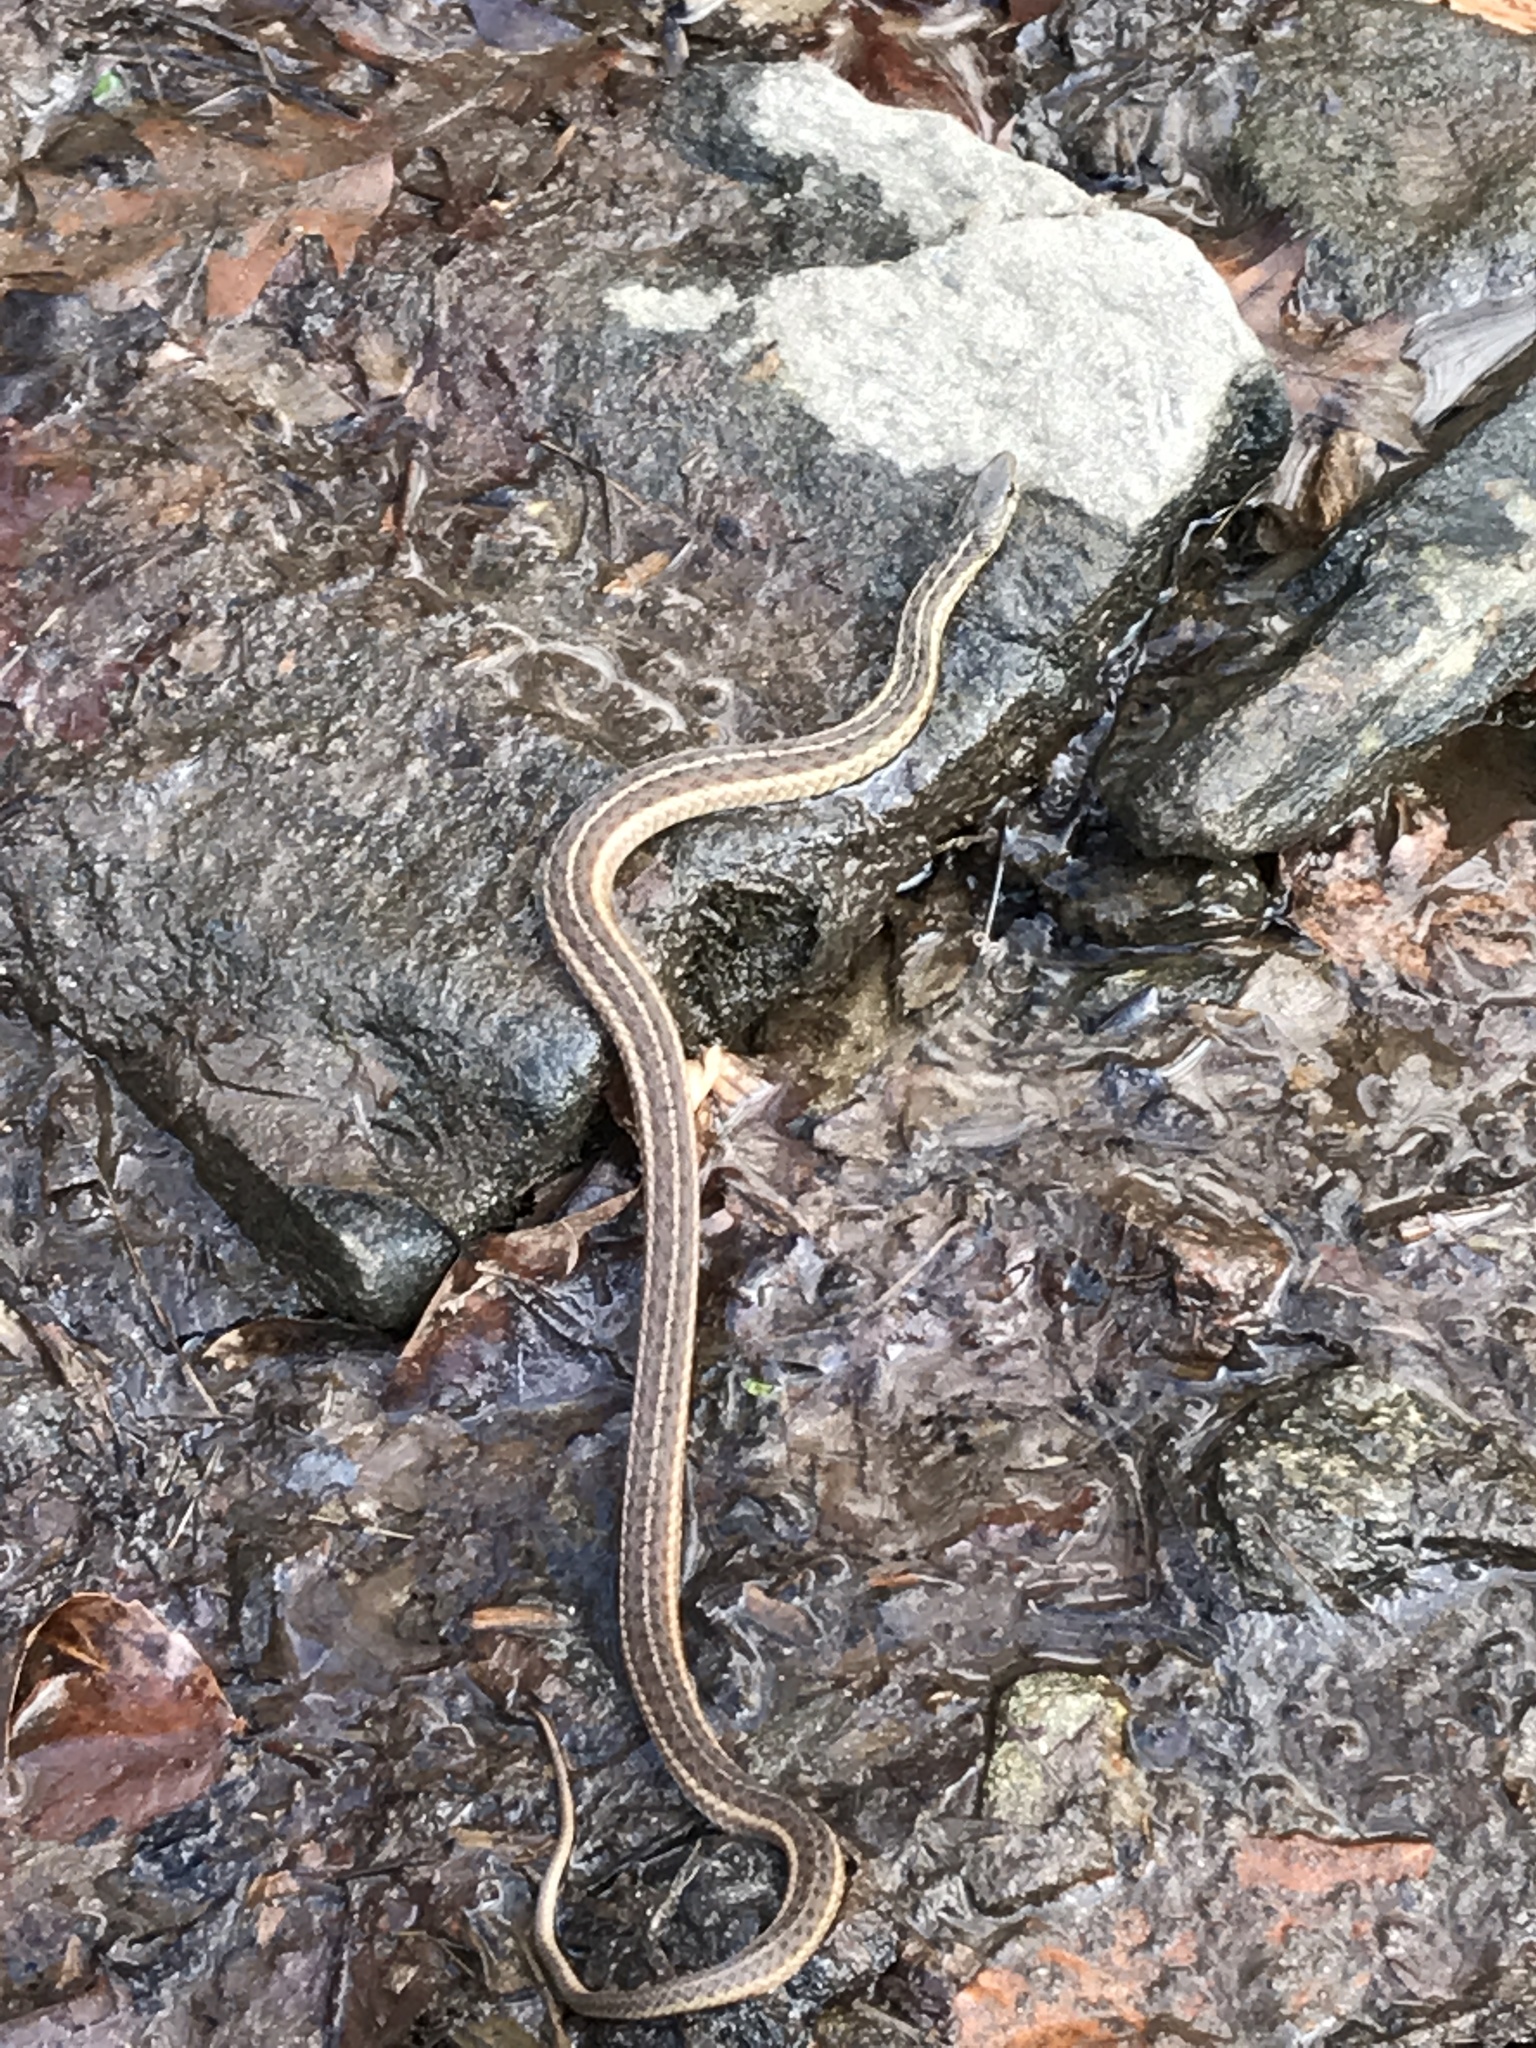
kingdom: Animalia
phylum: Chordata
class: Squamata
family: Colubridae
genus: Thamnophis
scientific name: Thamnophis sirtalis
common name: Common garter snake
